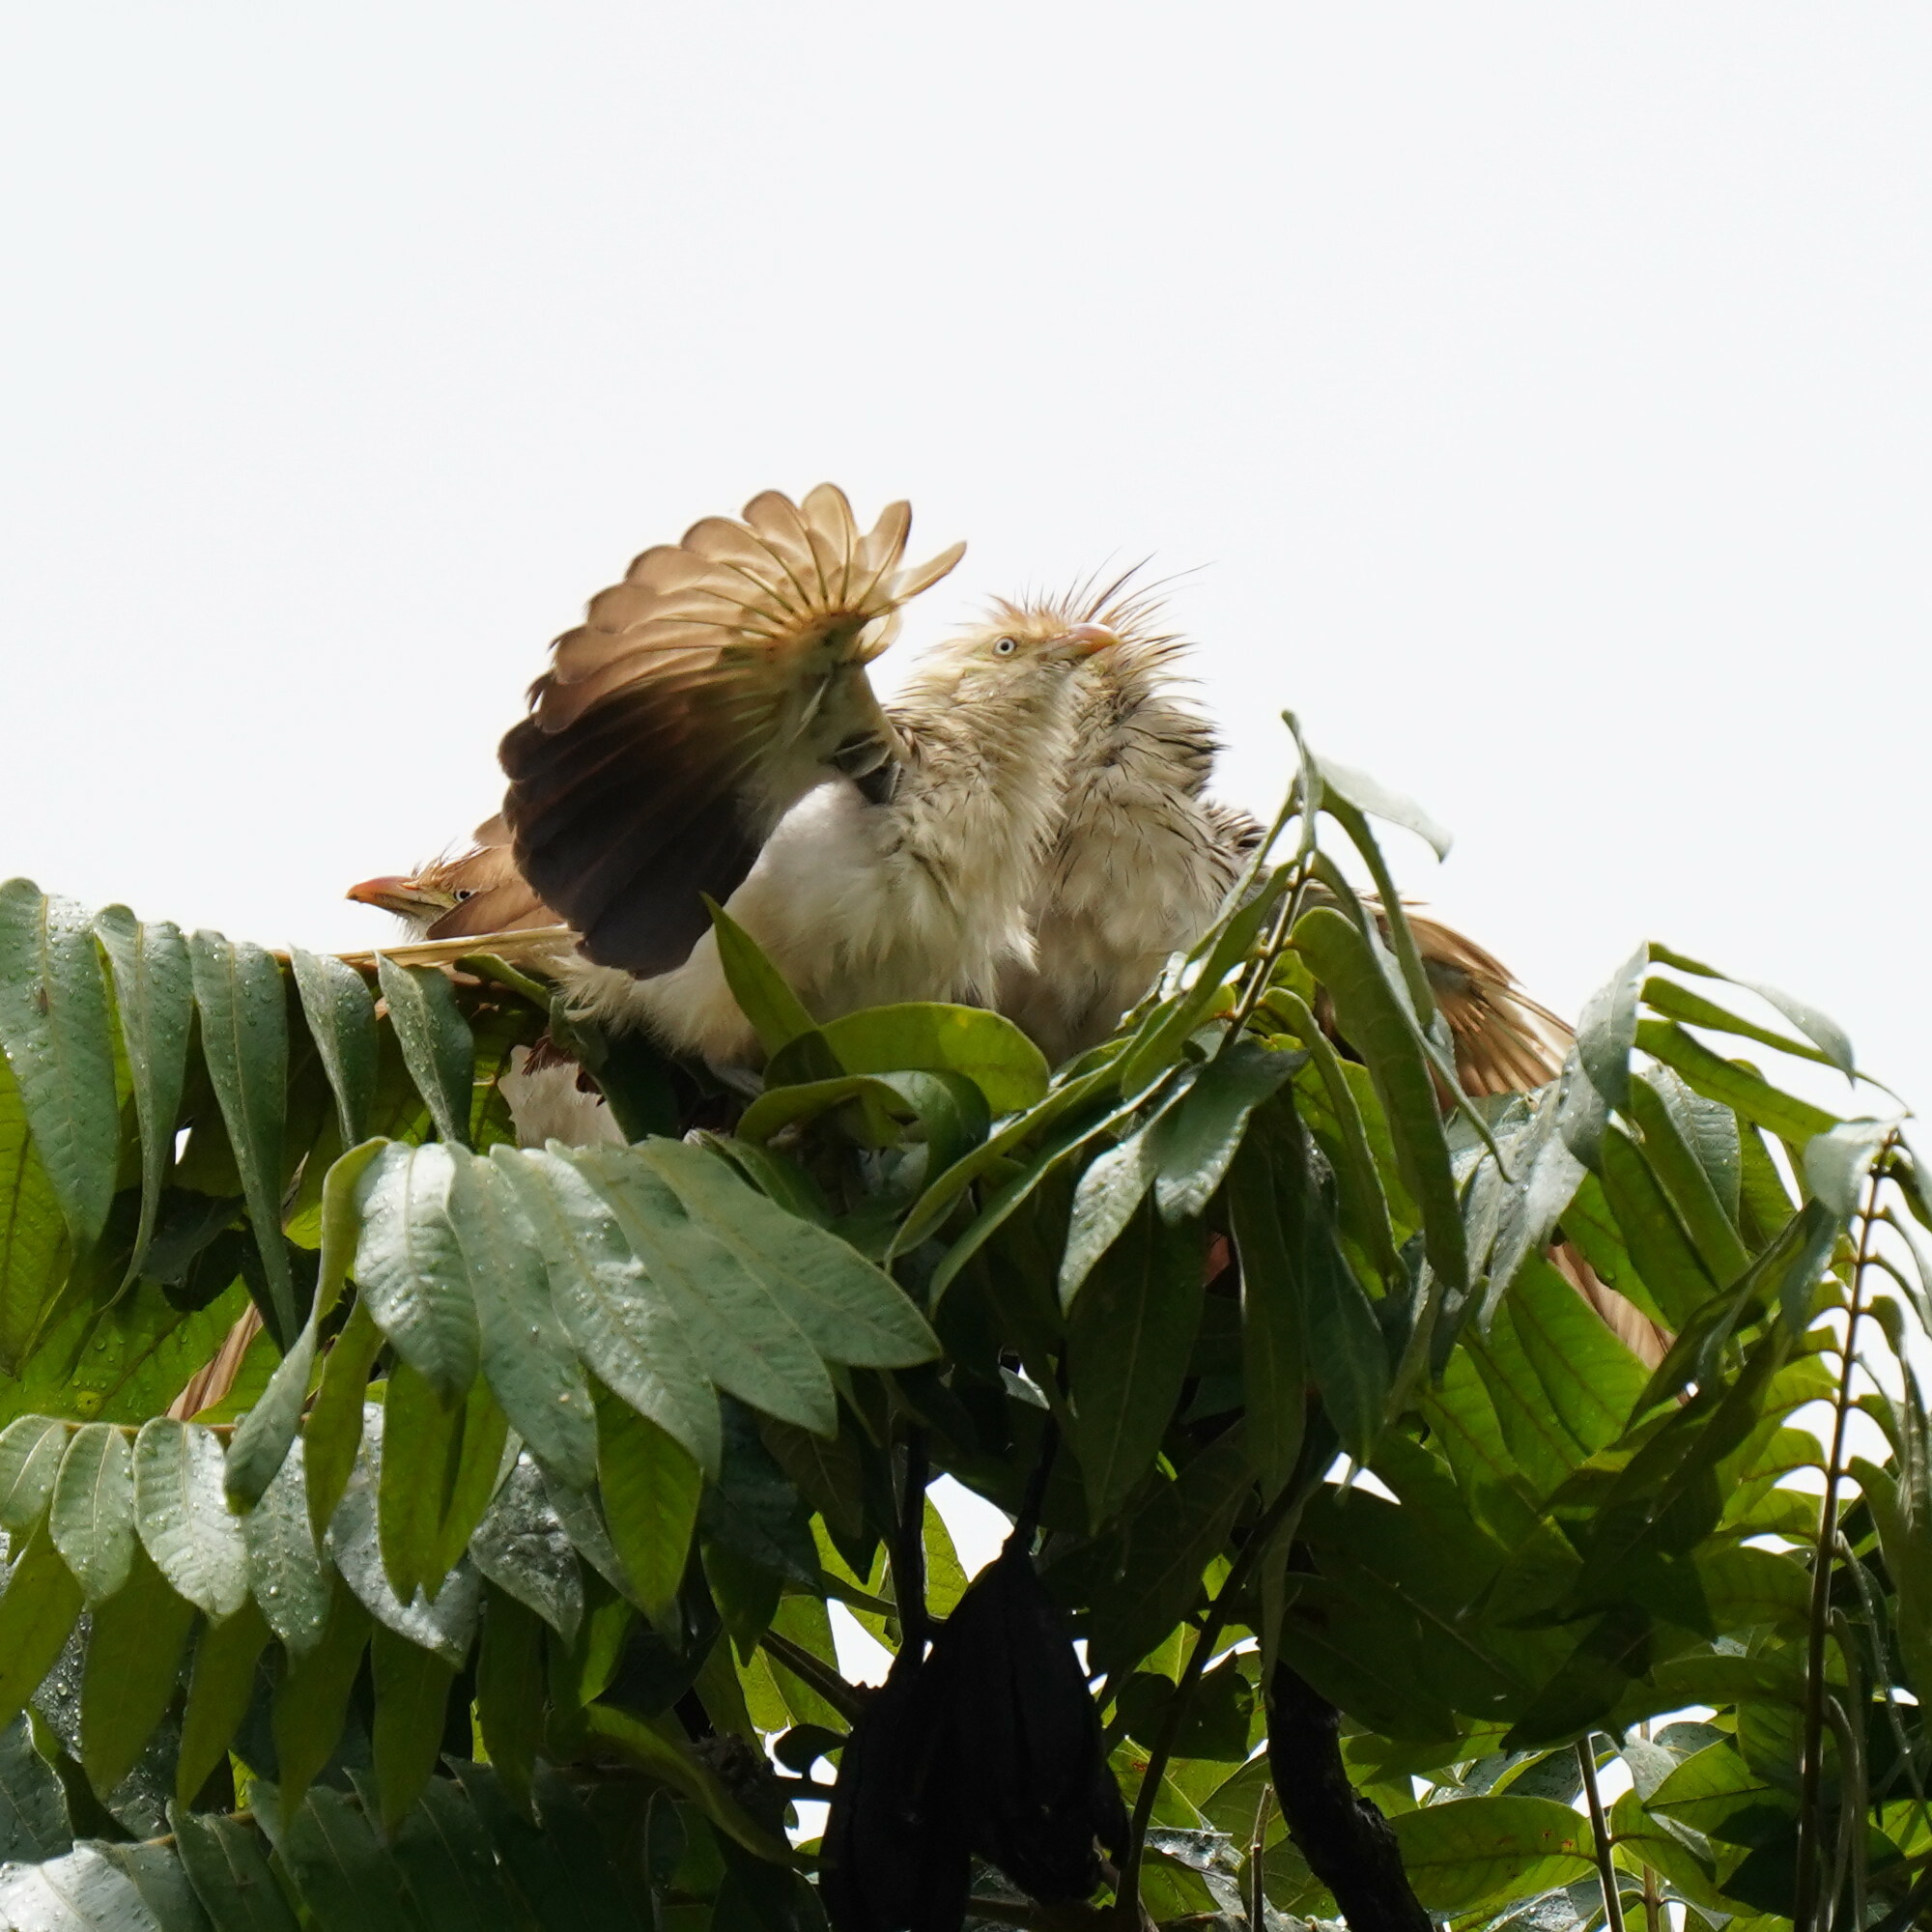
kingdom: Animalia
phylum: Chordata
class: Aves
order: Cuculiformes
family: Cuculidae
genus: Guira
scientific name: Guira guira
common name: Guira cuckoo
